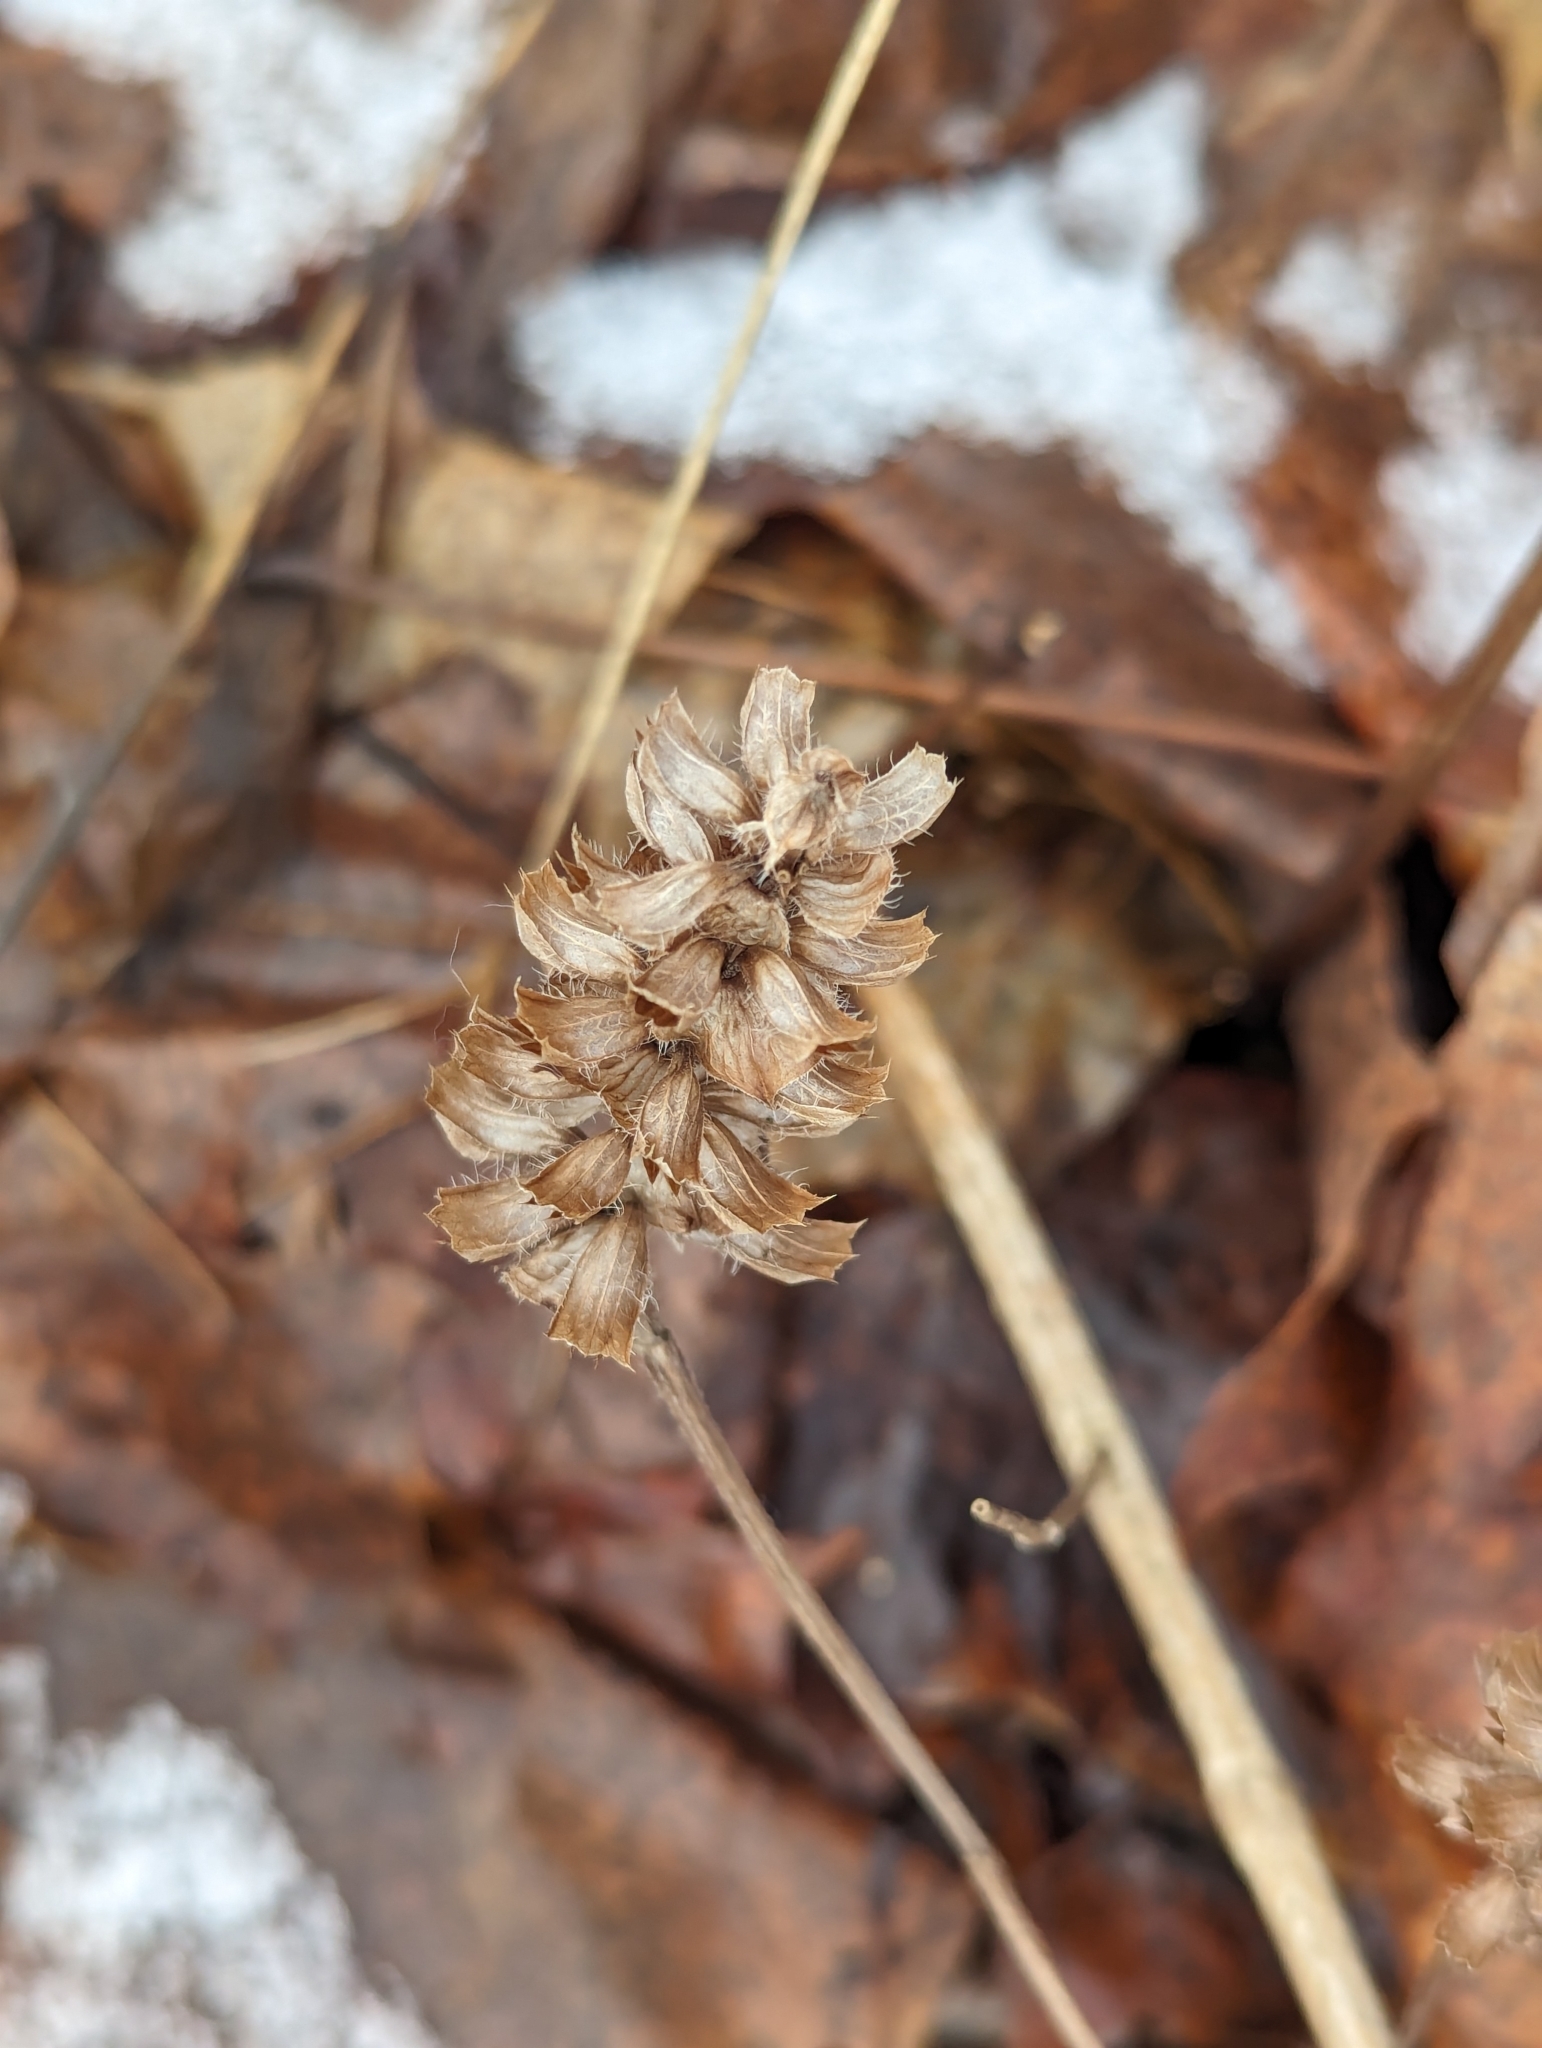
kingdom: Plantae
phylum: Tracheophyta
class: Magnoliopsida
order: Lamiales
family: Lamiaceae
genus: Prunella
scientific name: Prunella vulgaris
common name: Heal-all
